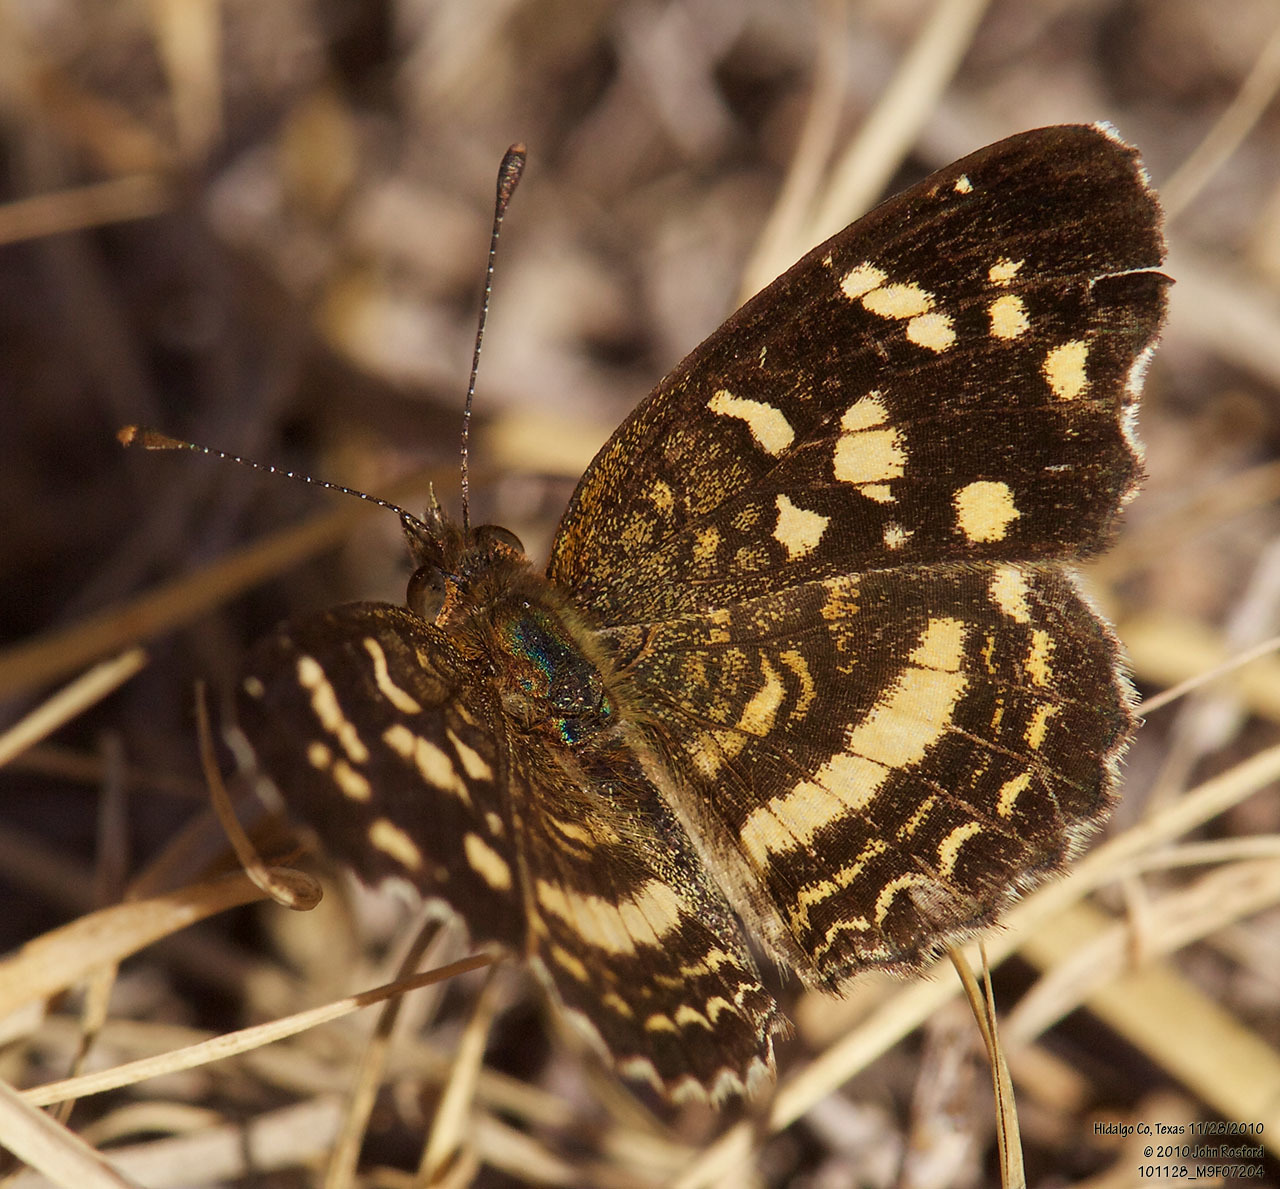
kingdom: Animalia
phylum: Arthropoda
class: Insecta
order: Lepidoptera
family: Nymphalidae
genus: Anthanassa
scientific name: Anthanassa tulcis
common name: Pale-banded crescent
